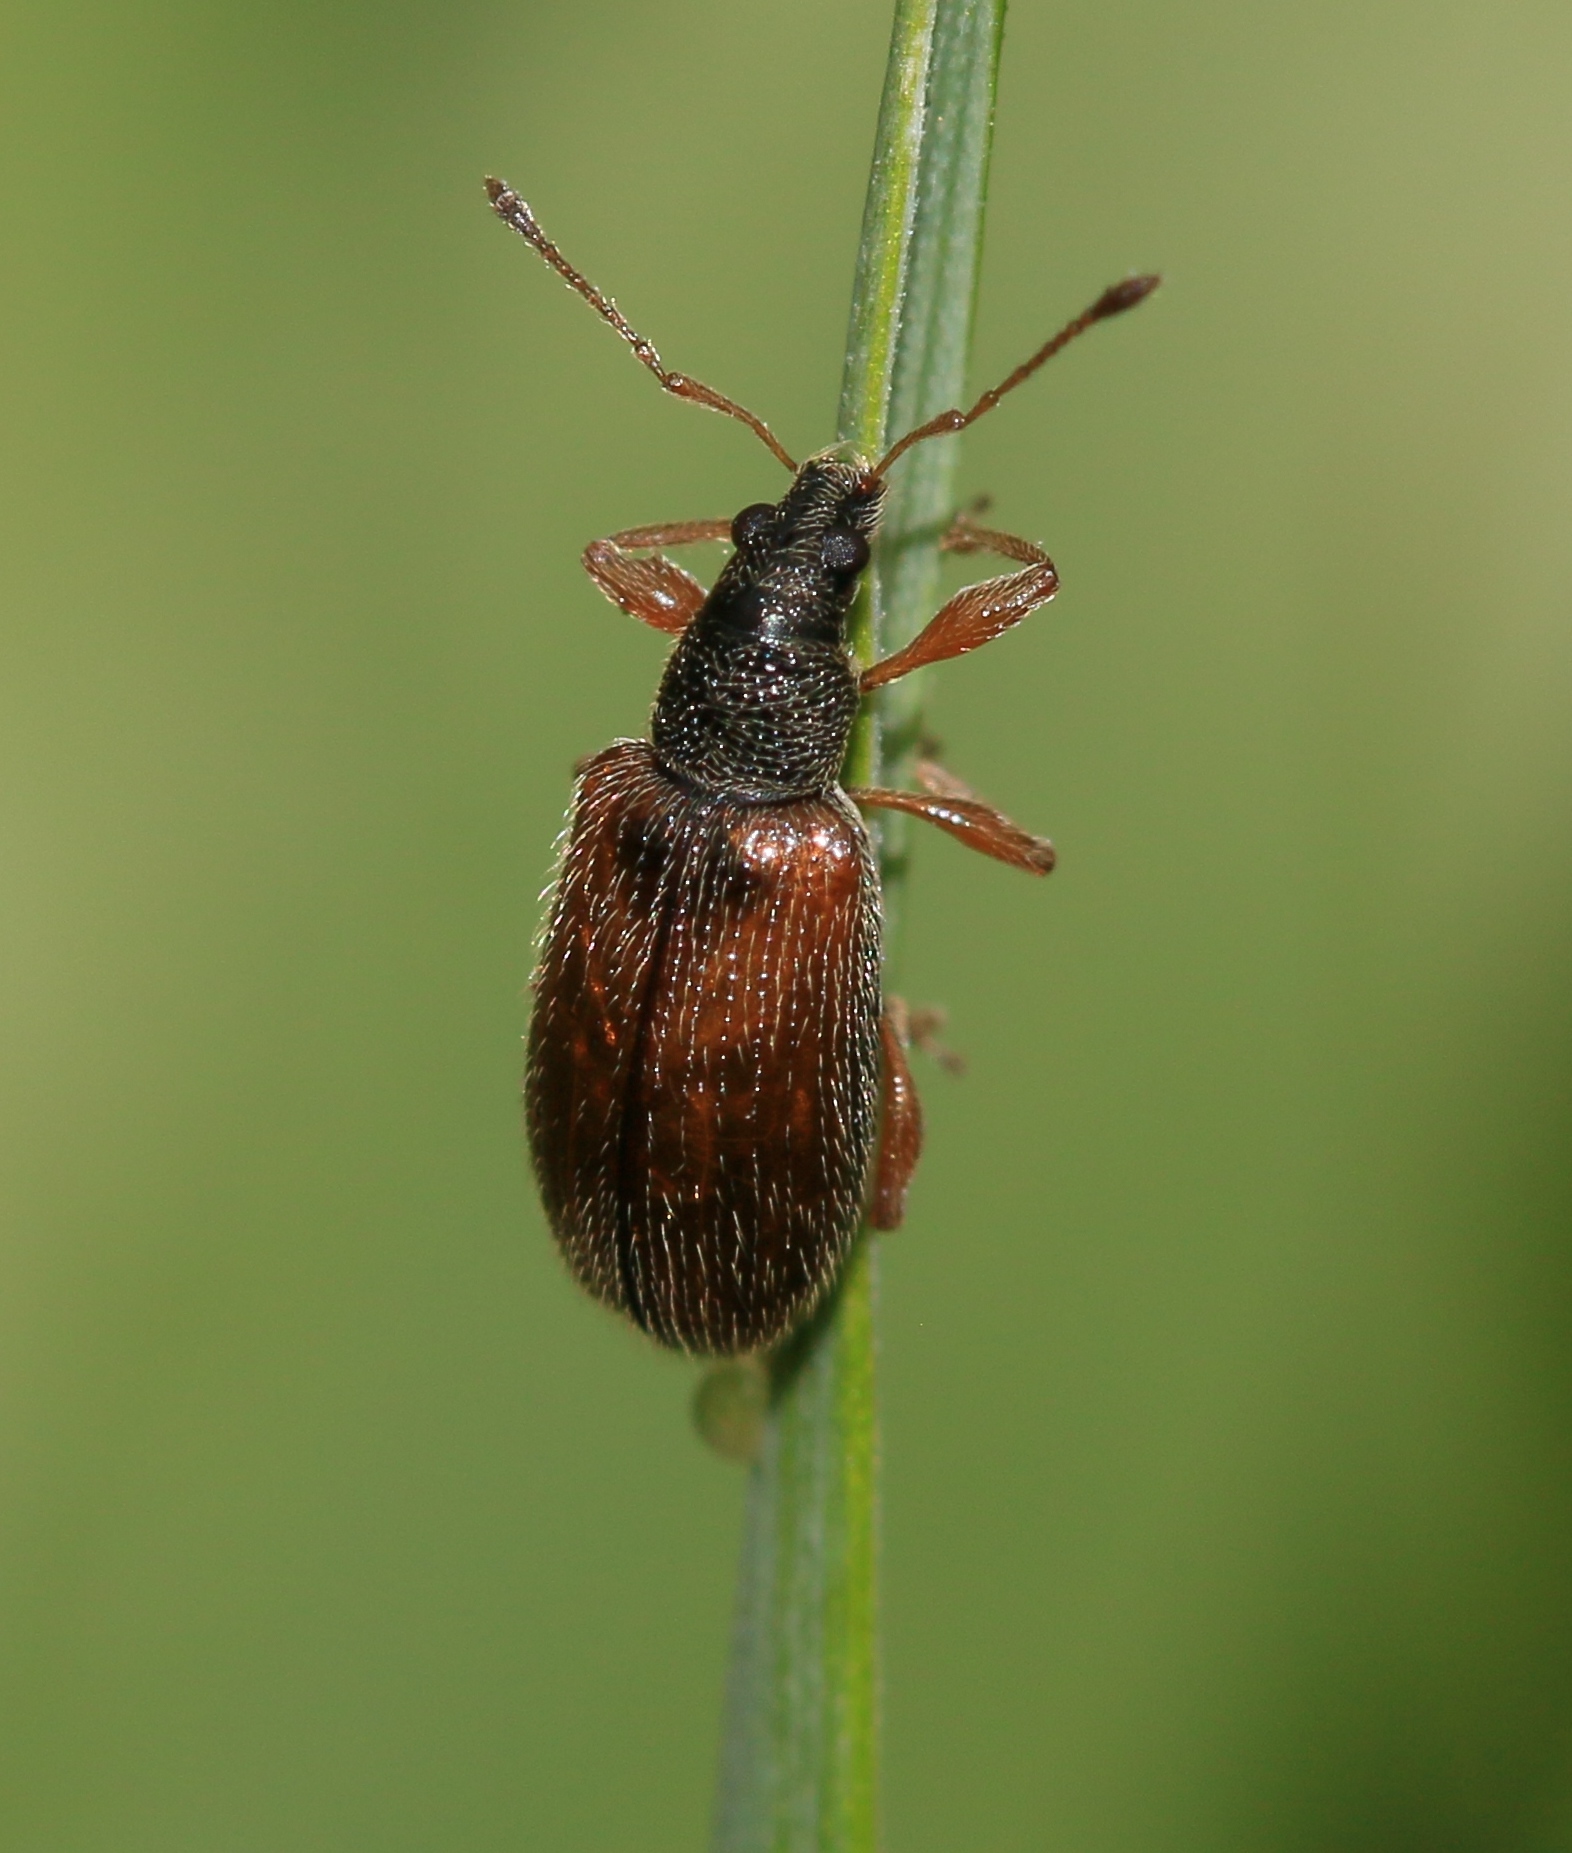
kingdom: Animalia
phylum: Arthropoda
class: Insecta
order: Coleoptera
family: Curculionidae
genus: Phyllobius
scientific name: Phyllobius oblongus
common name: Brown leaf weevil
